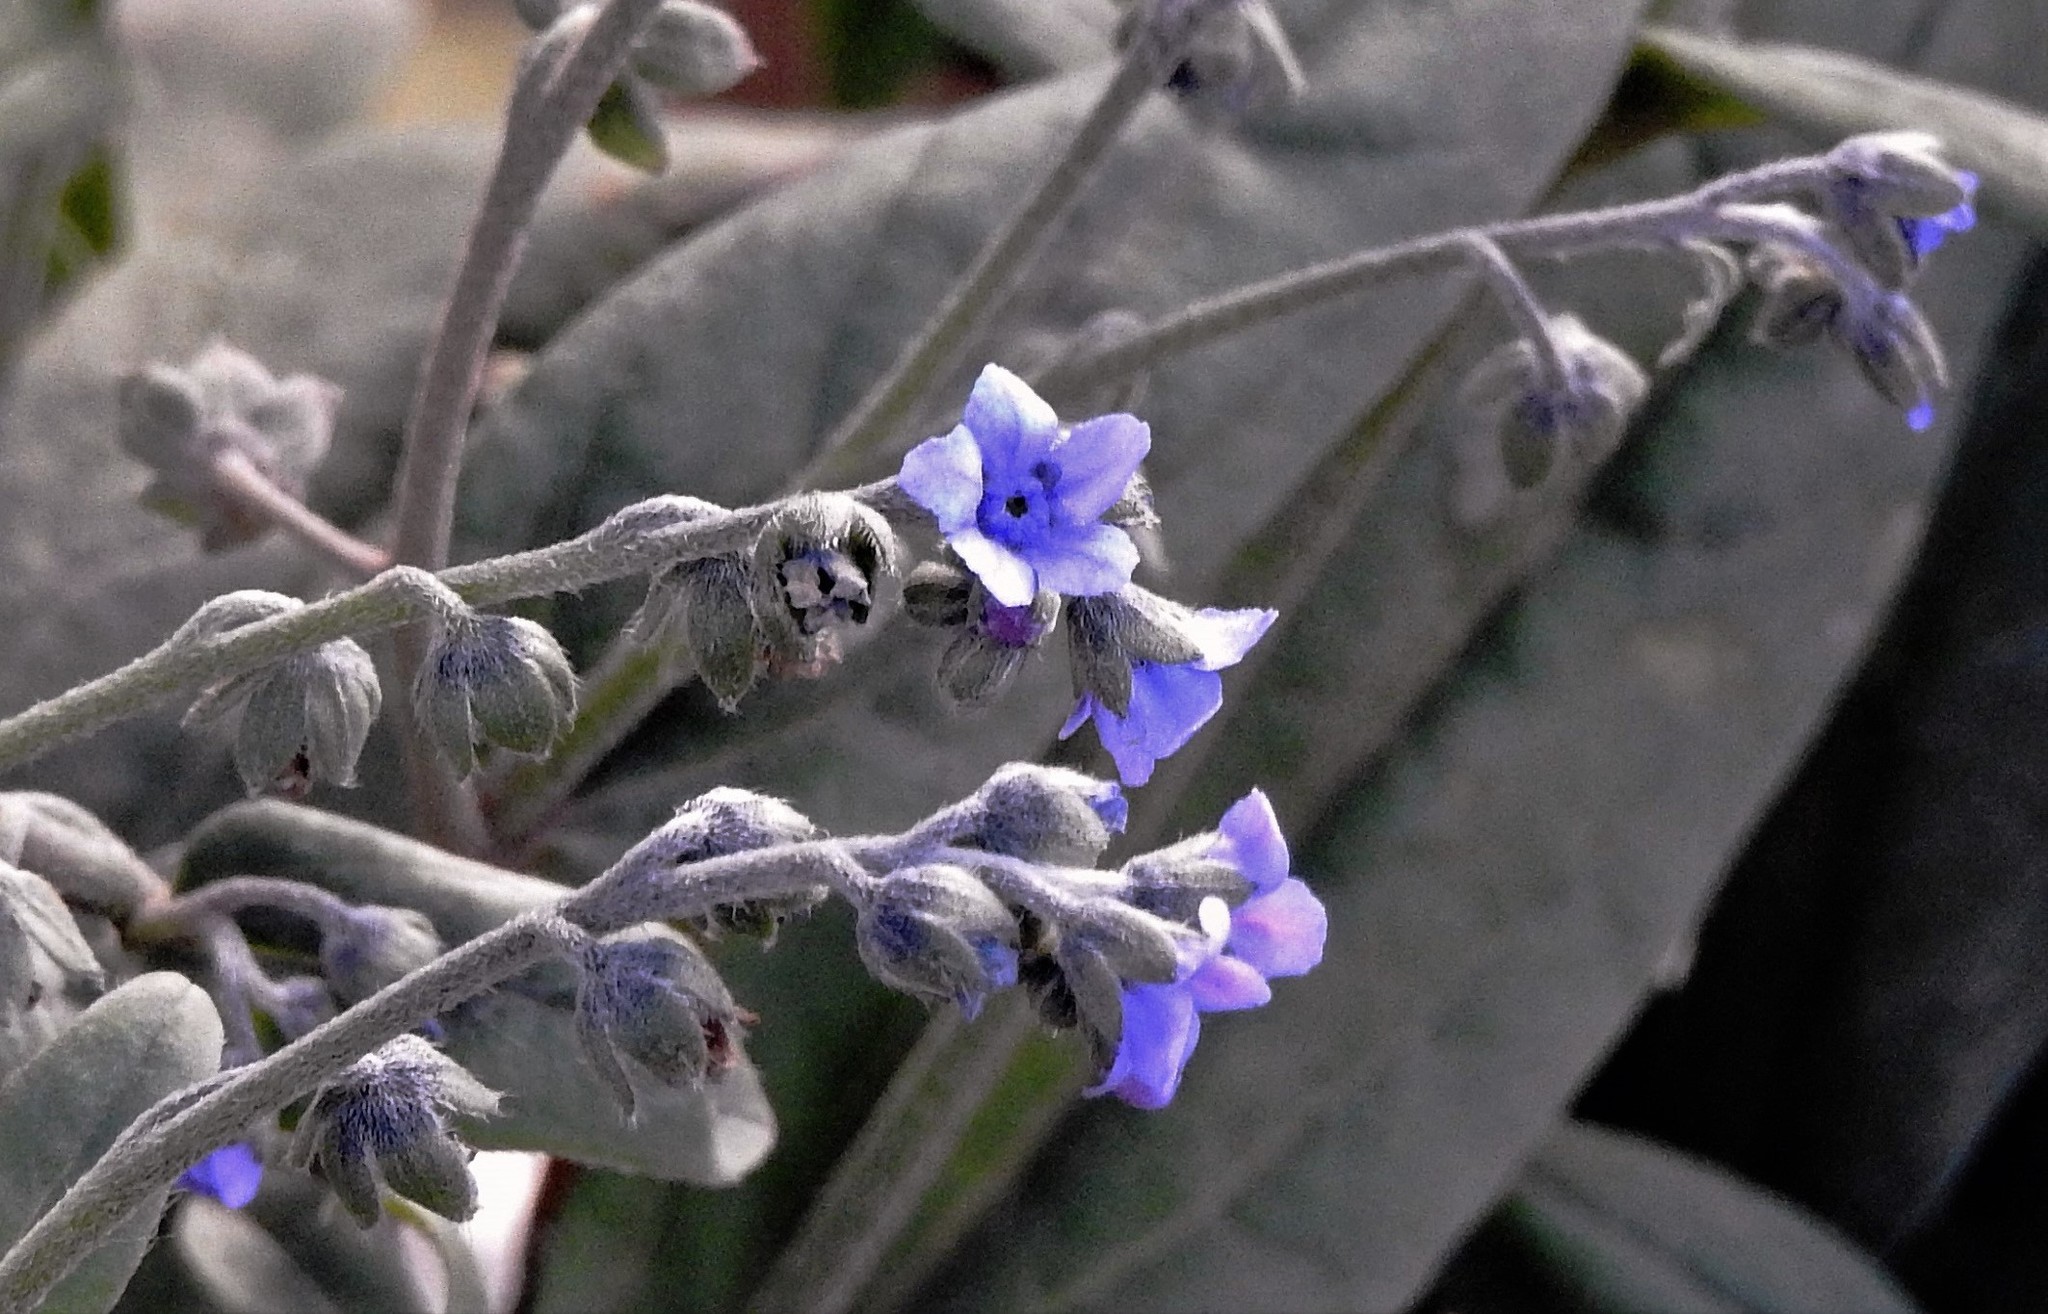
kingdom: Plantae
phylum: Tracheophyta
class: Magnoliopsida
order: Boraginales
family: Boraginaceae
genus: Cynoglossum
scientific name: Cynoglossum amabile
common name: Chinese hound's tongue
